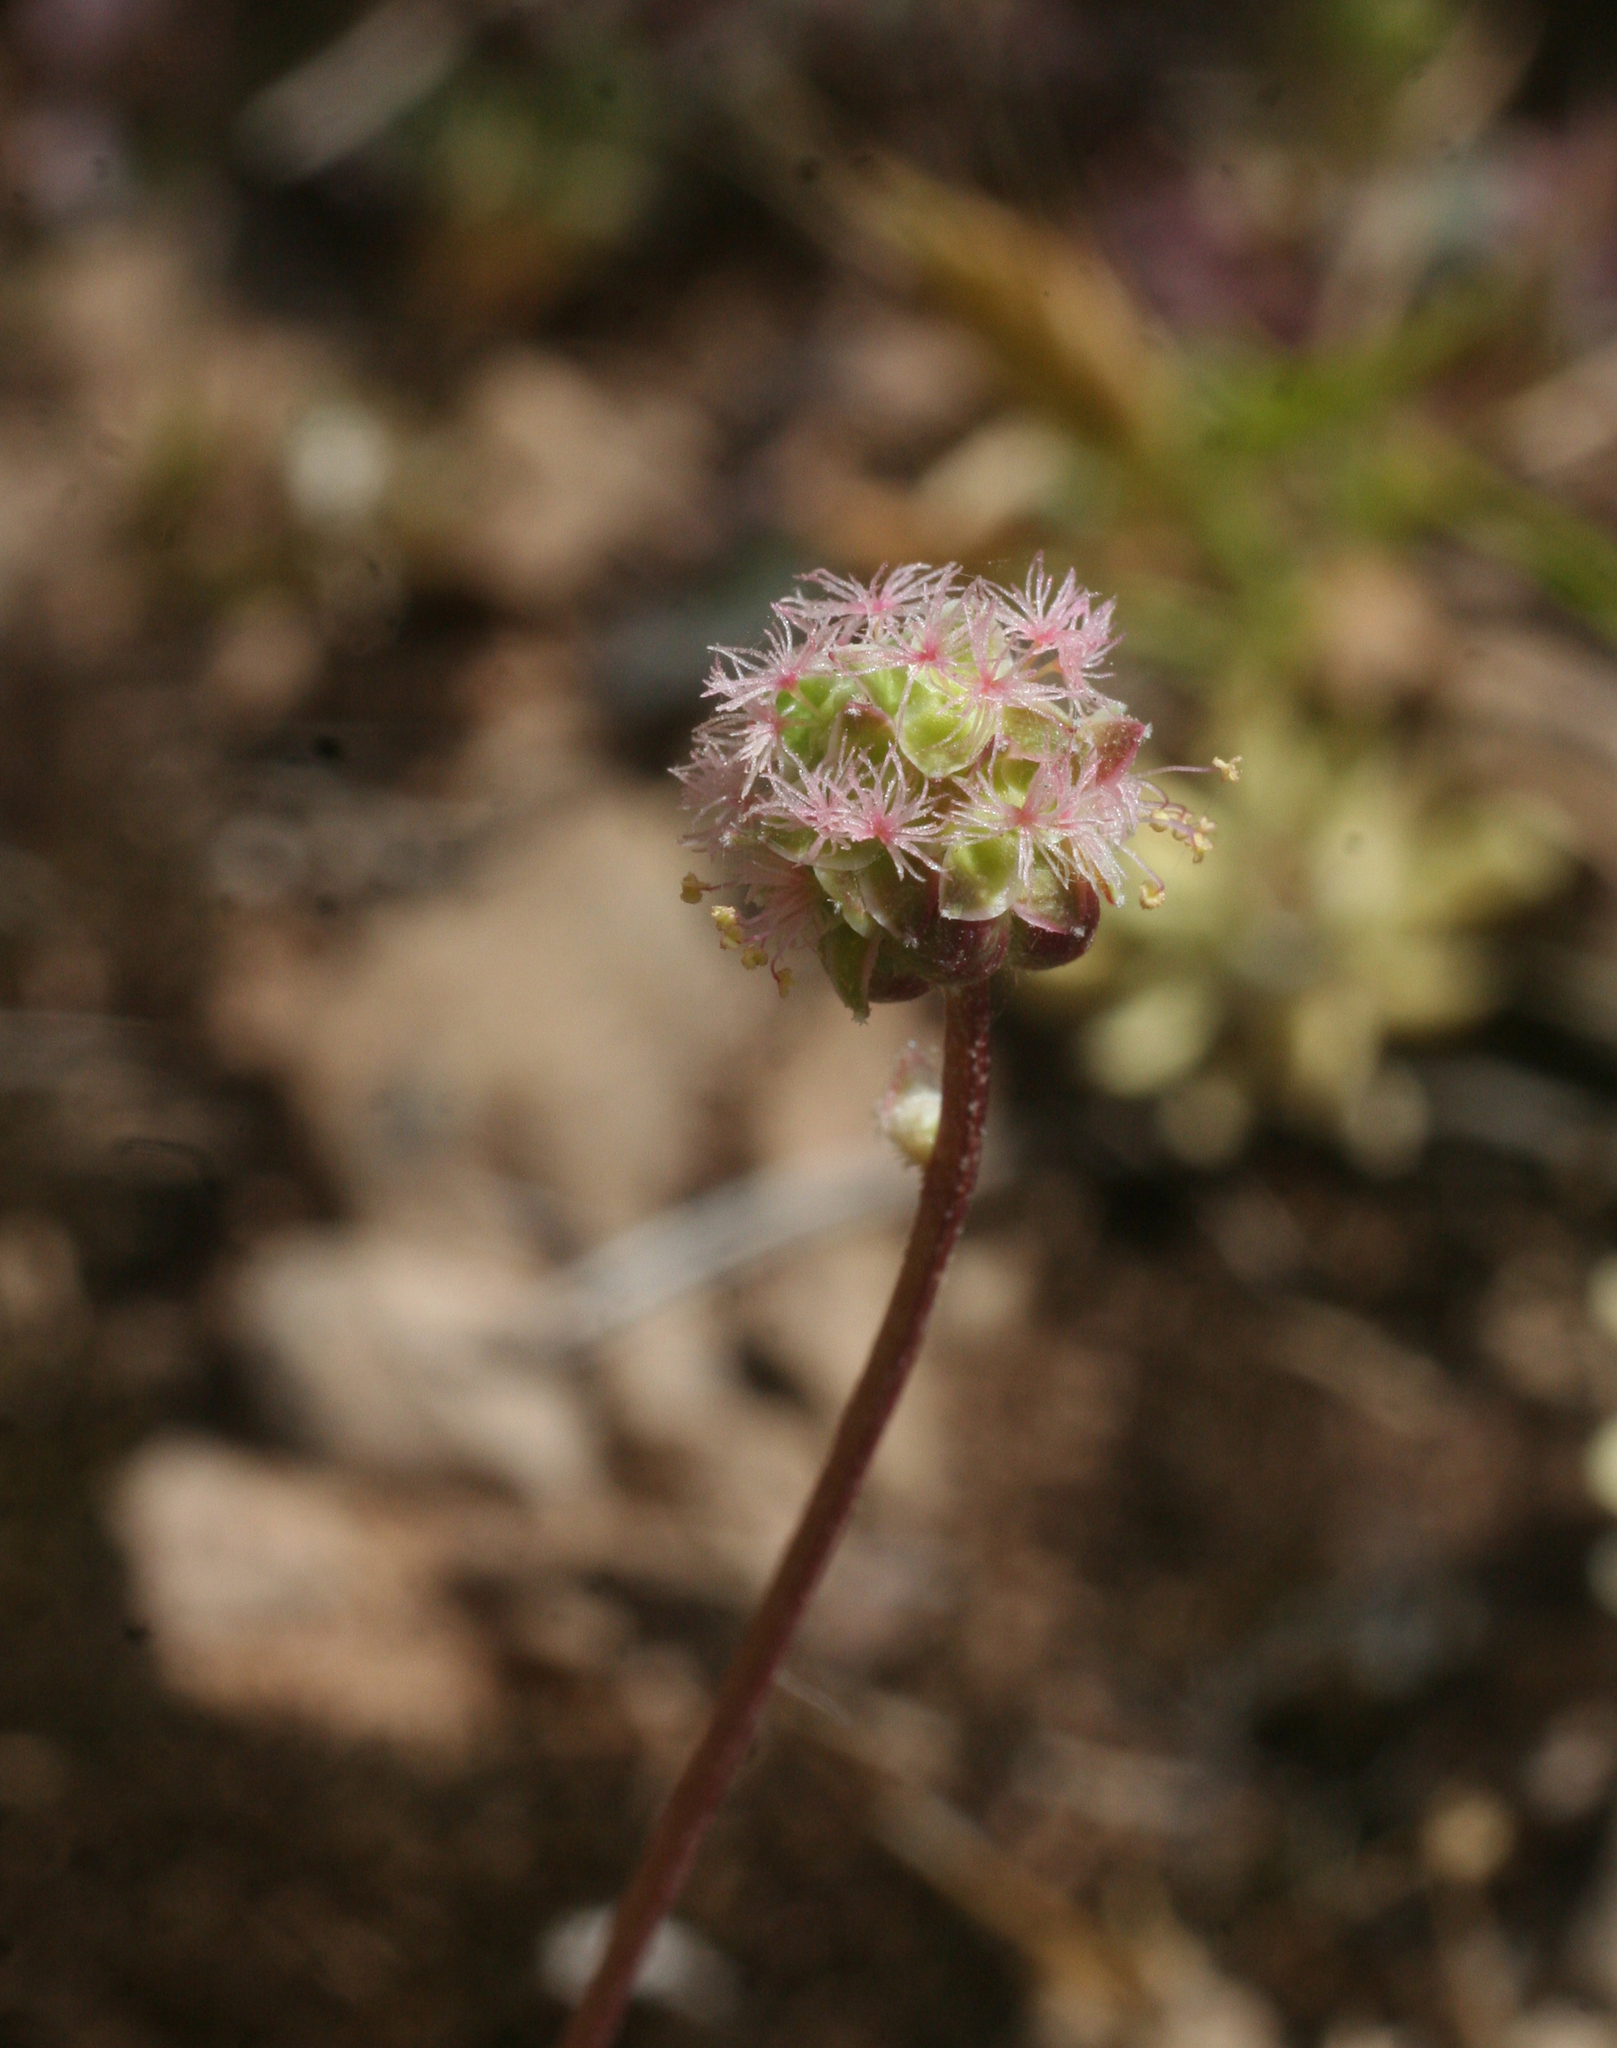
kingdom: Plantae
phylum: Tracheophyta
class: Magnoliopsida
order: Rosales
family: Rosaceae
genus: Poterium
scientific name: Poterium
